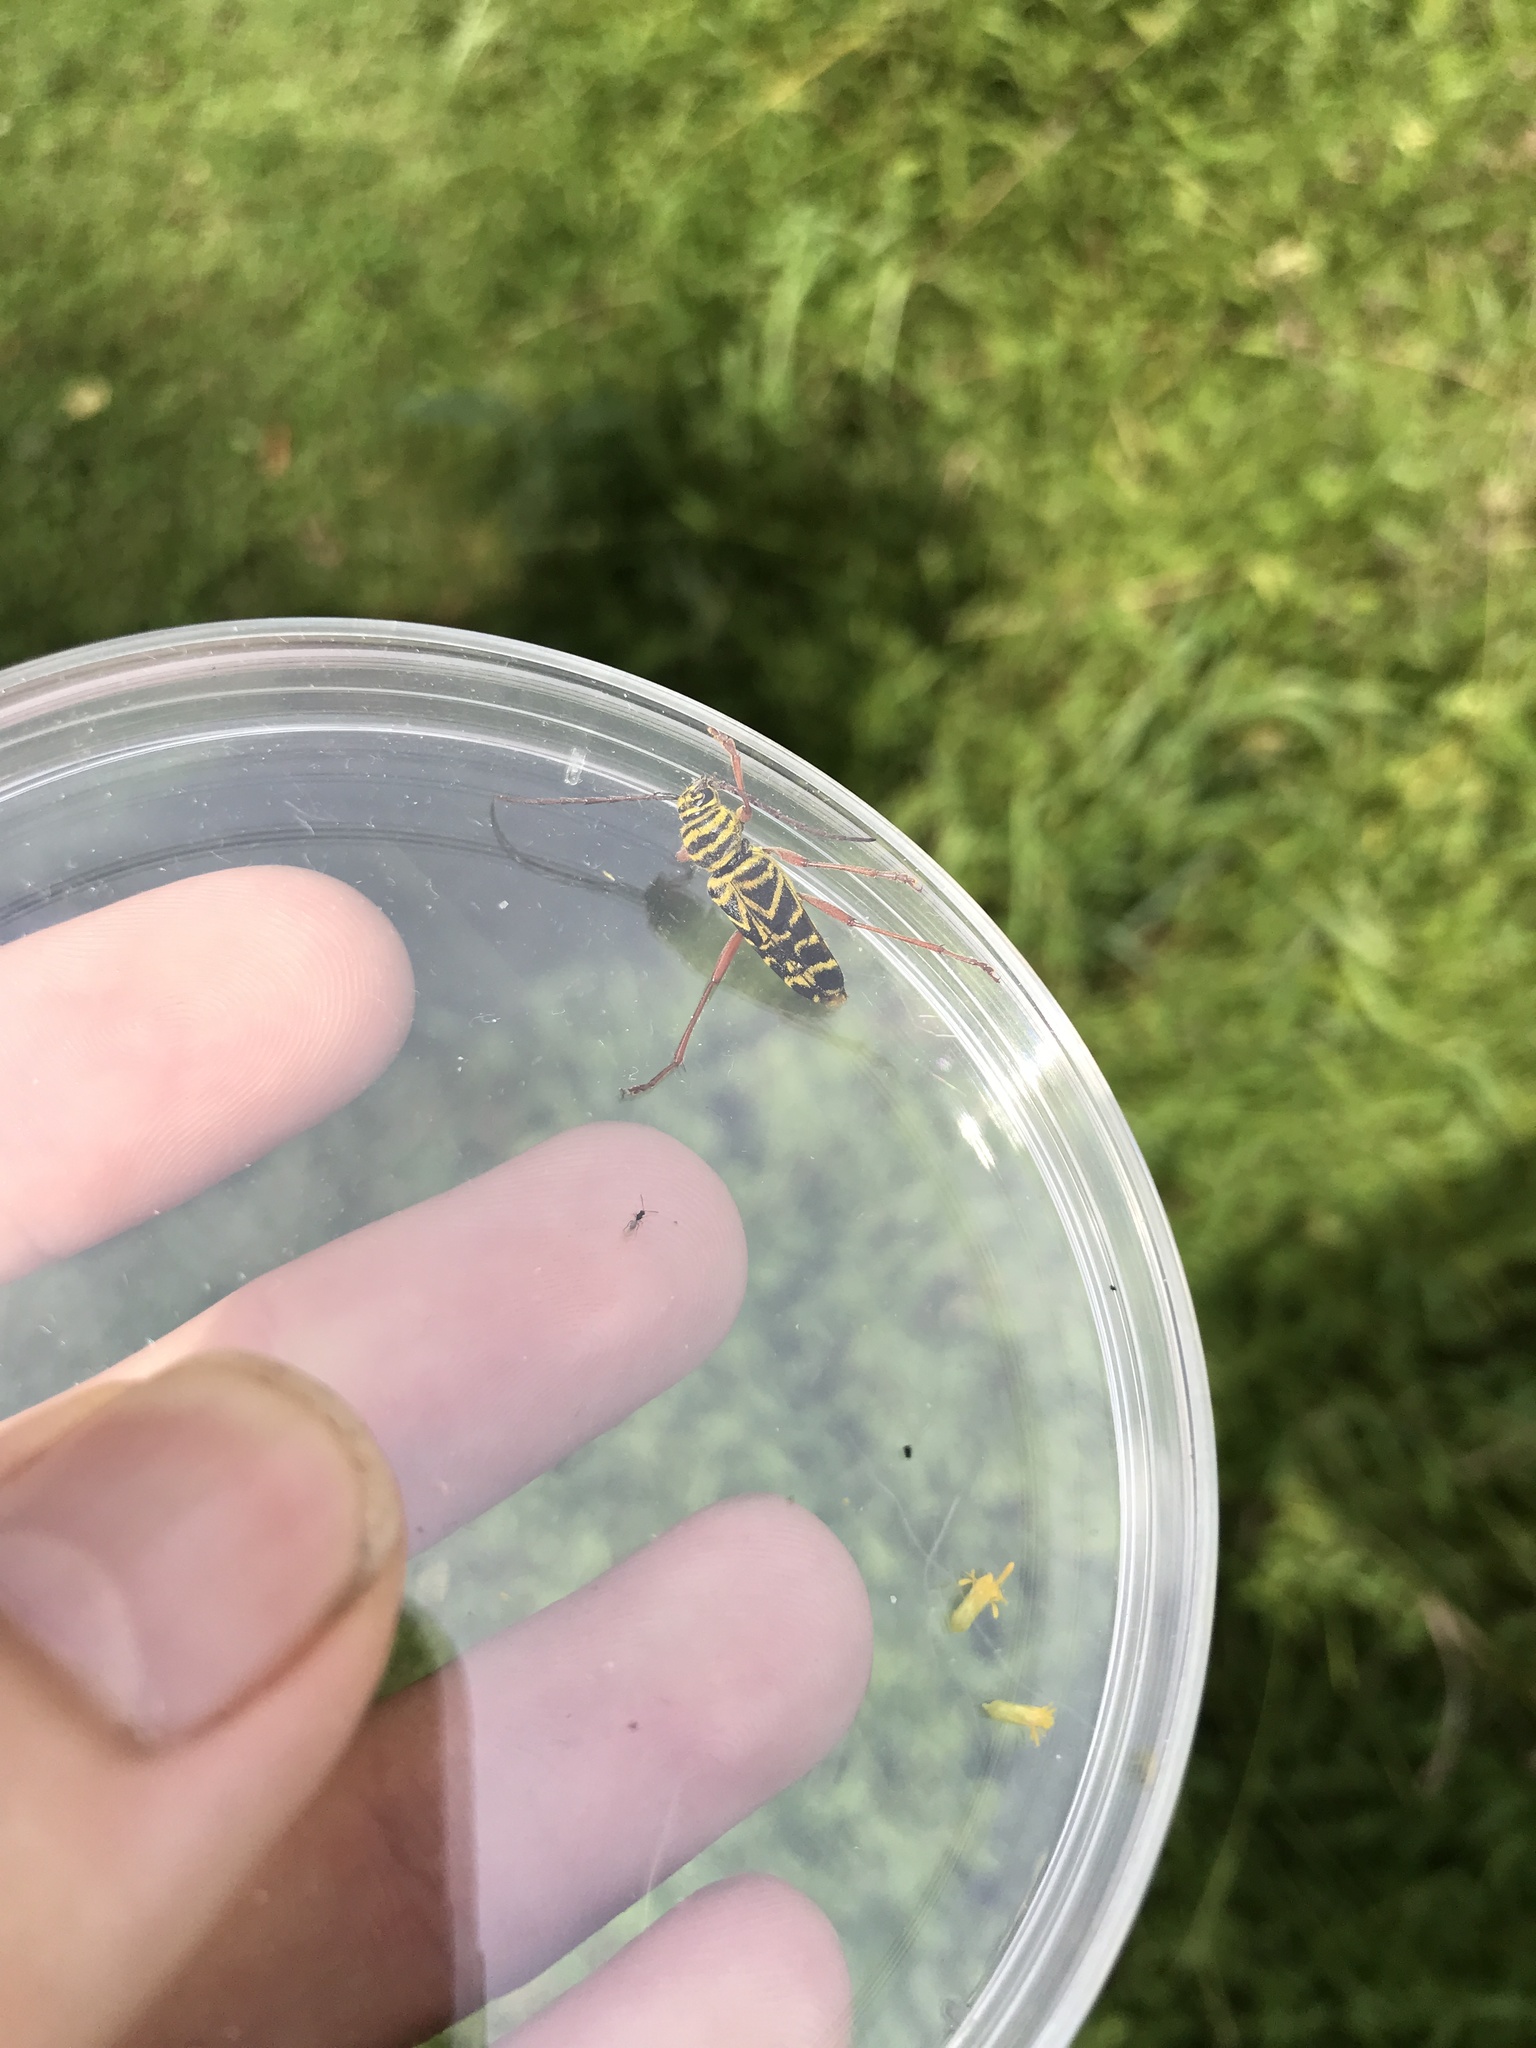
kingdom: Animalia
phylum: Arthropoda
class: Insecta
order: Coleoptera
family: Cerambycidae
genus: Megacyllene
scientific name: Megacyllene robiniae
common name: Locust borer
